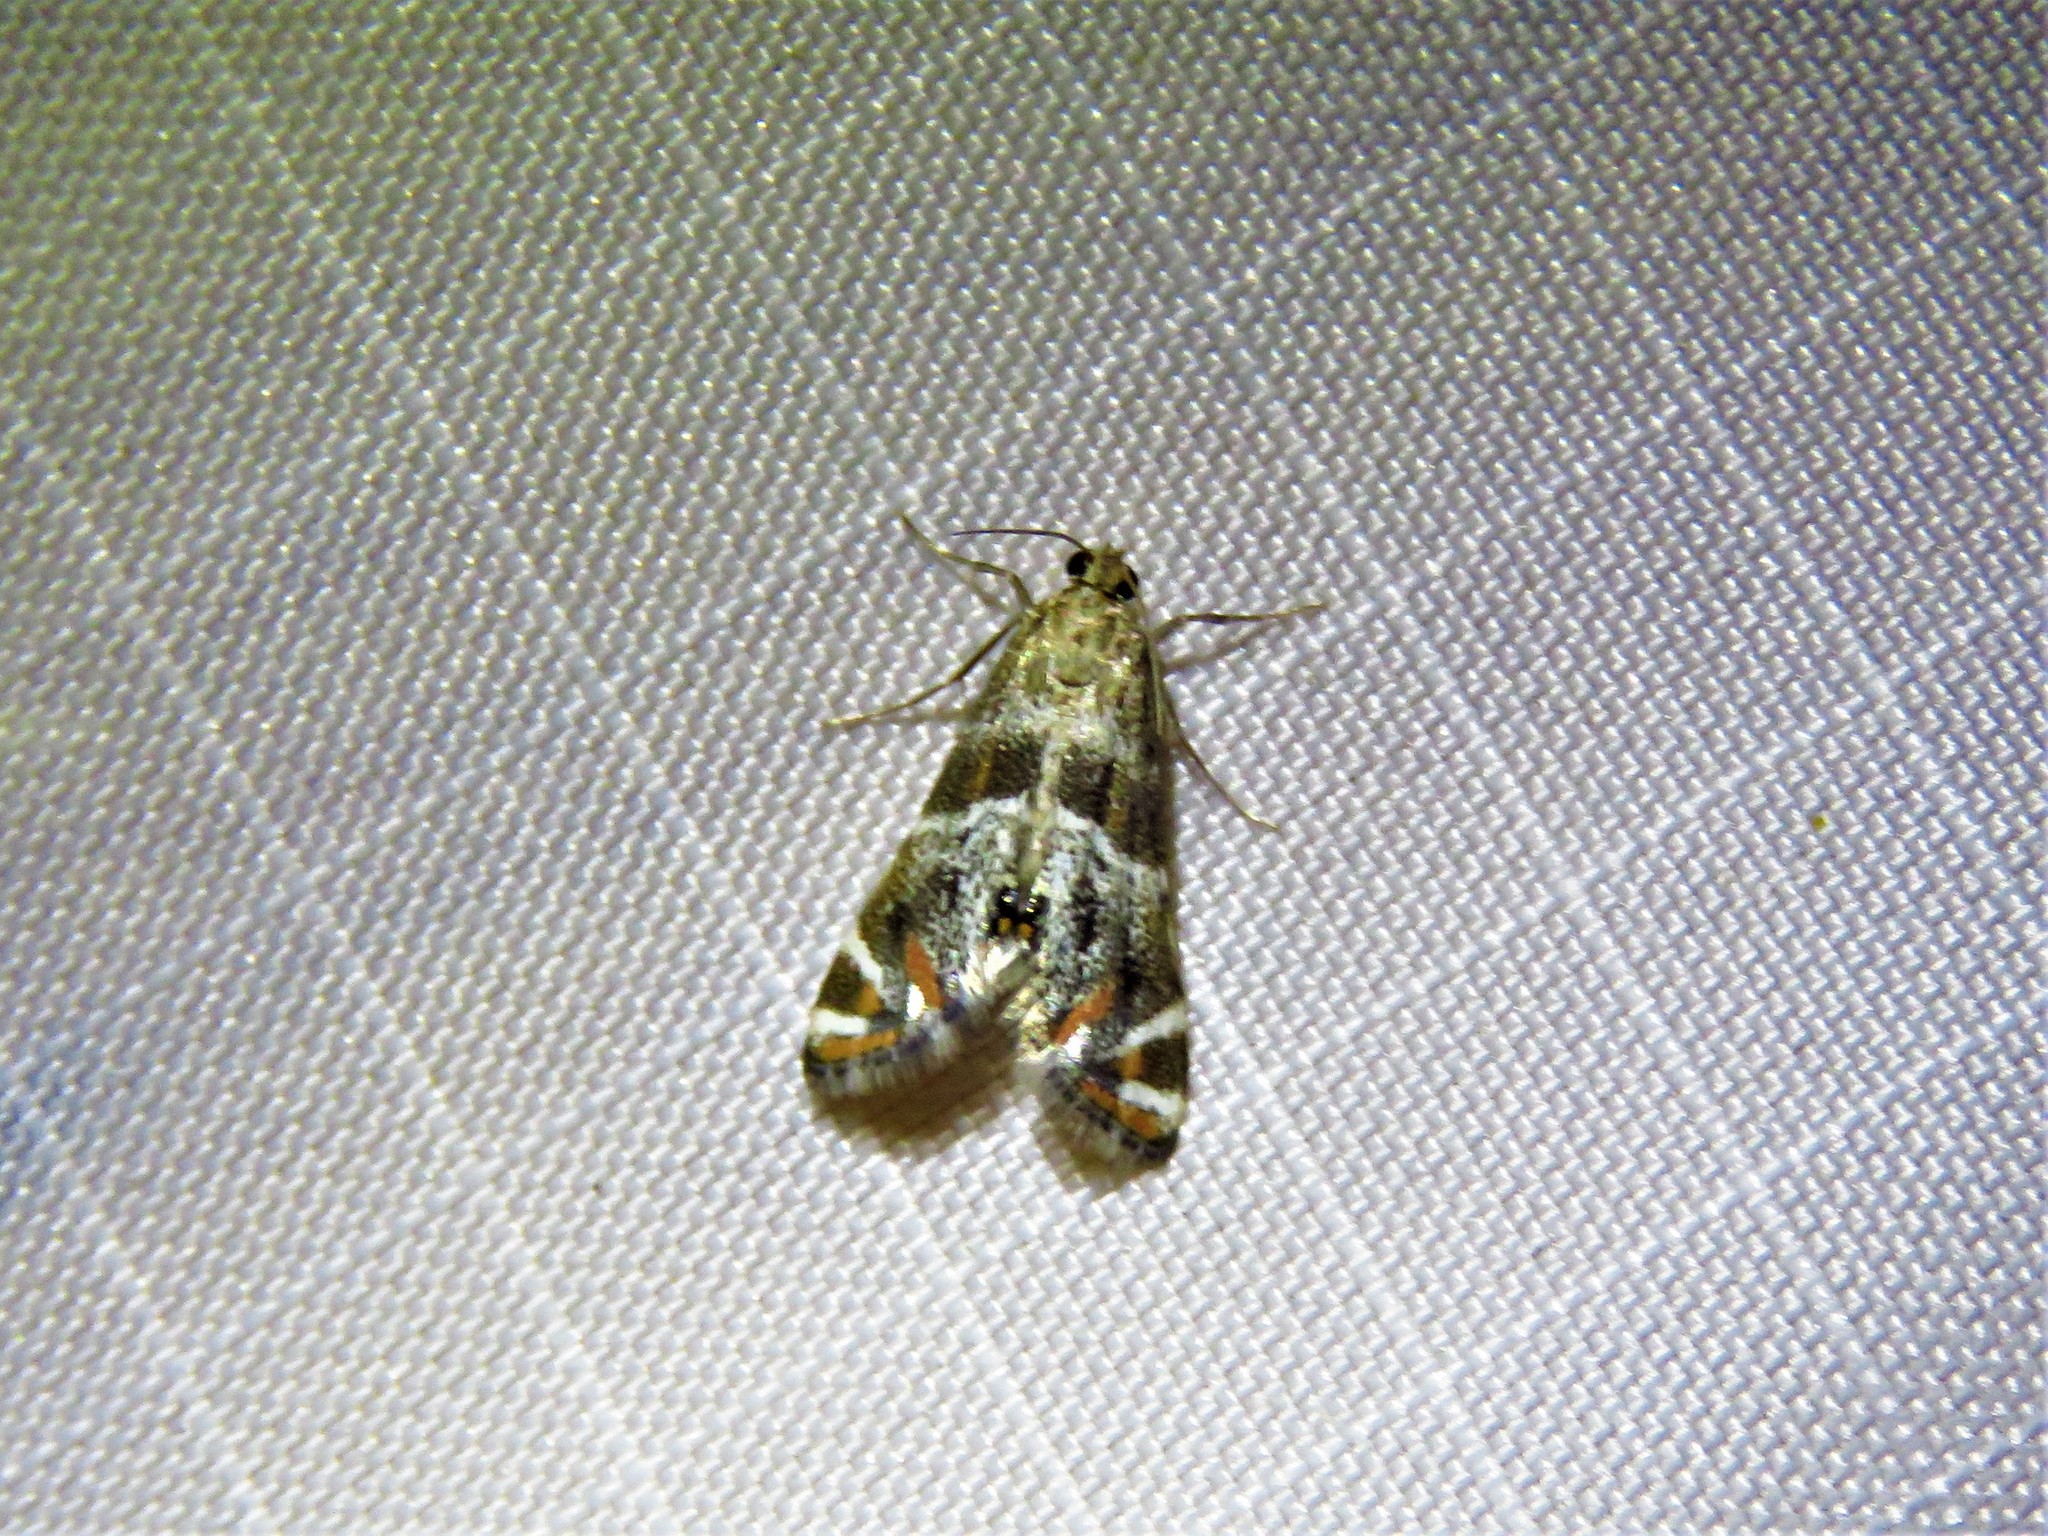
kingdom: Animalia
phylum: Arthropoda
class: Insecta
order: Lepidoptera
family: Crambidae
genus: Petrophila
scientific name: Petrophila jaliscalis
